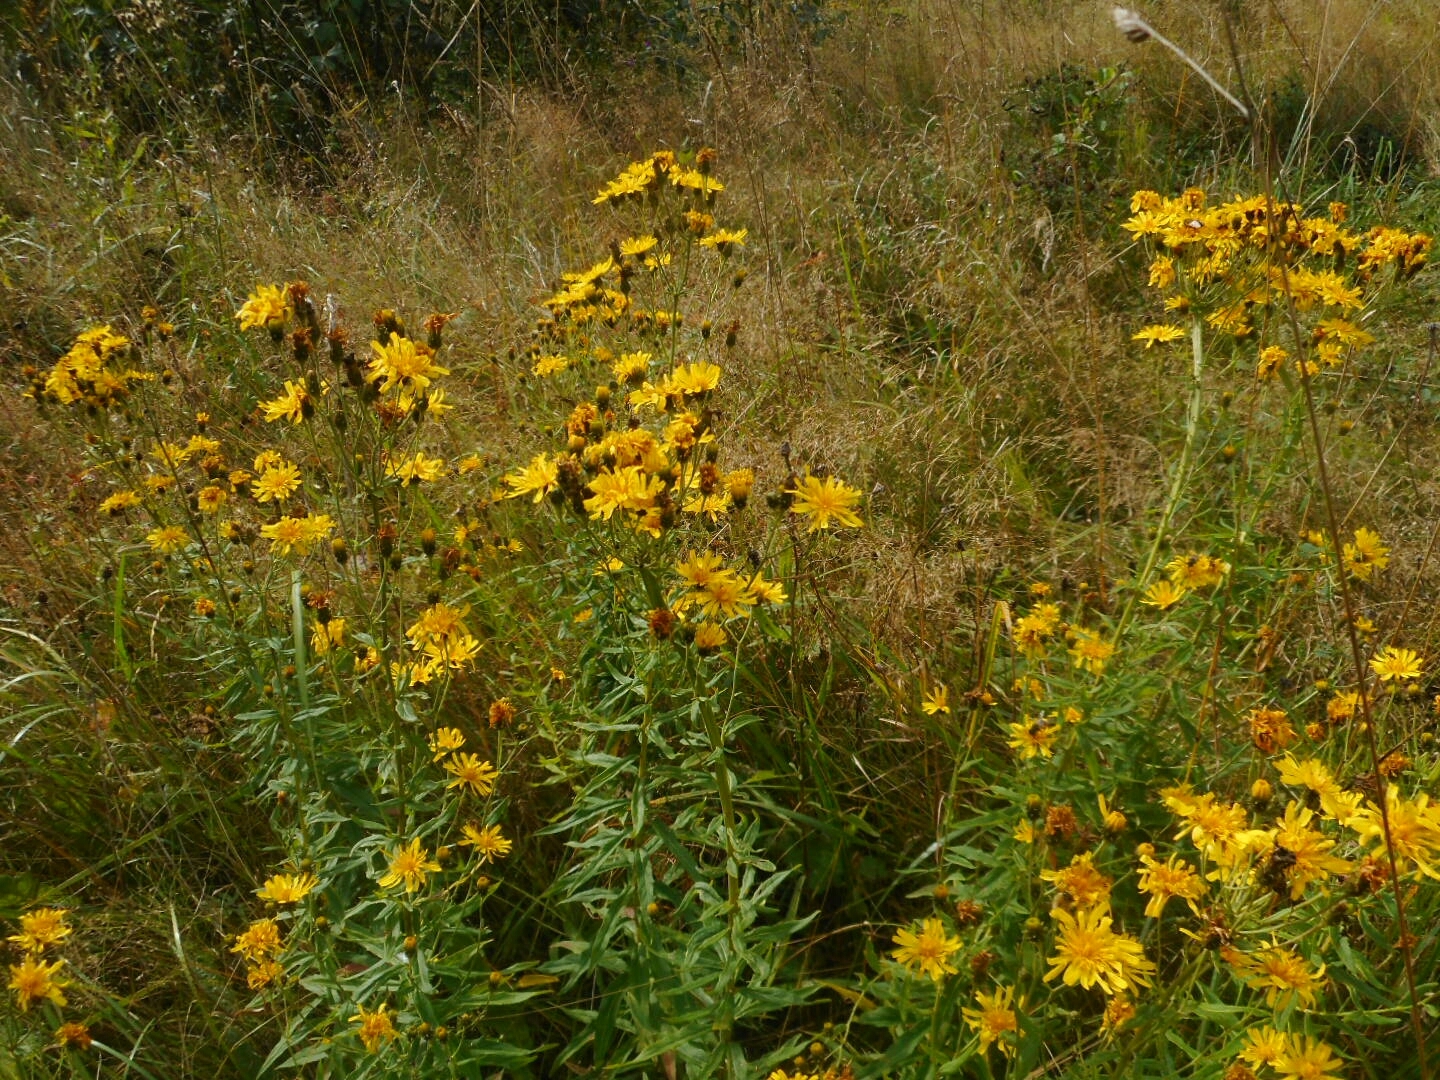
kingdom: Plantae
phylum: Tracheophyta
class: Magnoliopsida
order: Asterales
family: Asteraceae
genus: Hieracium
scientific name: Hieracium umbellatum
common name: Northern hawkweed
